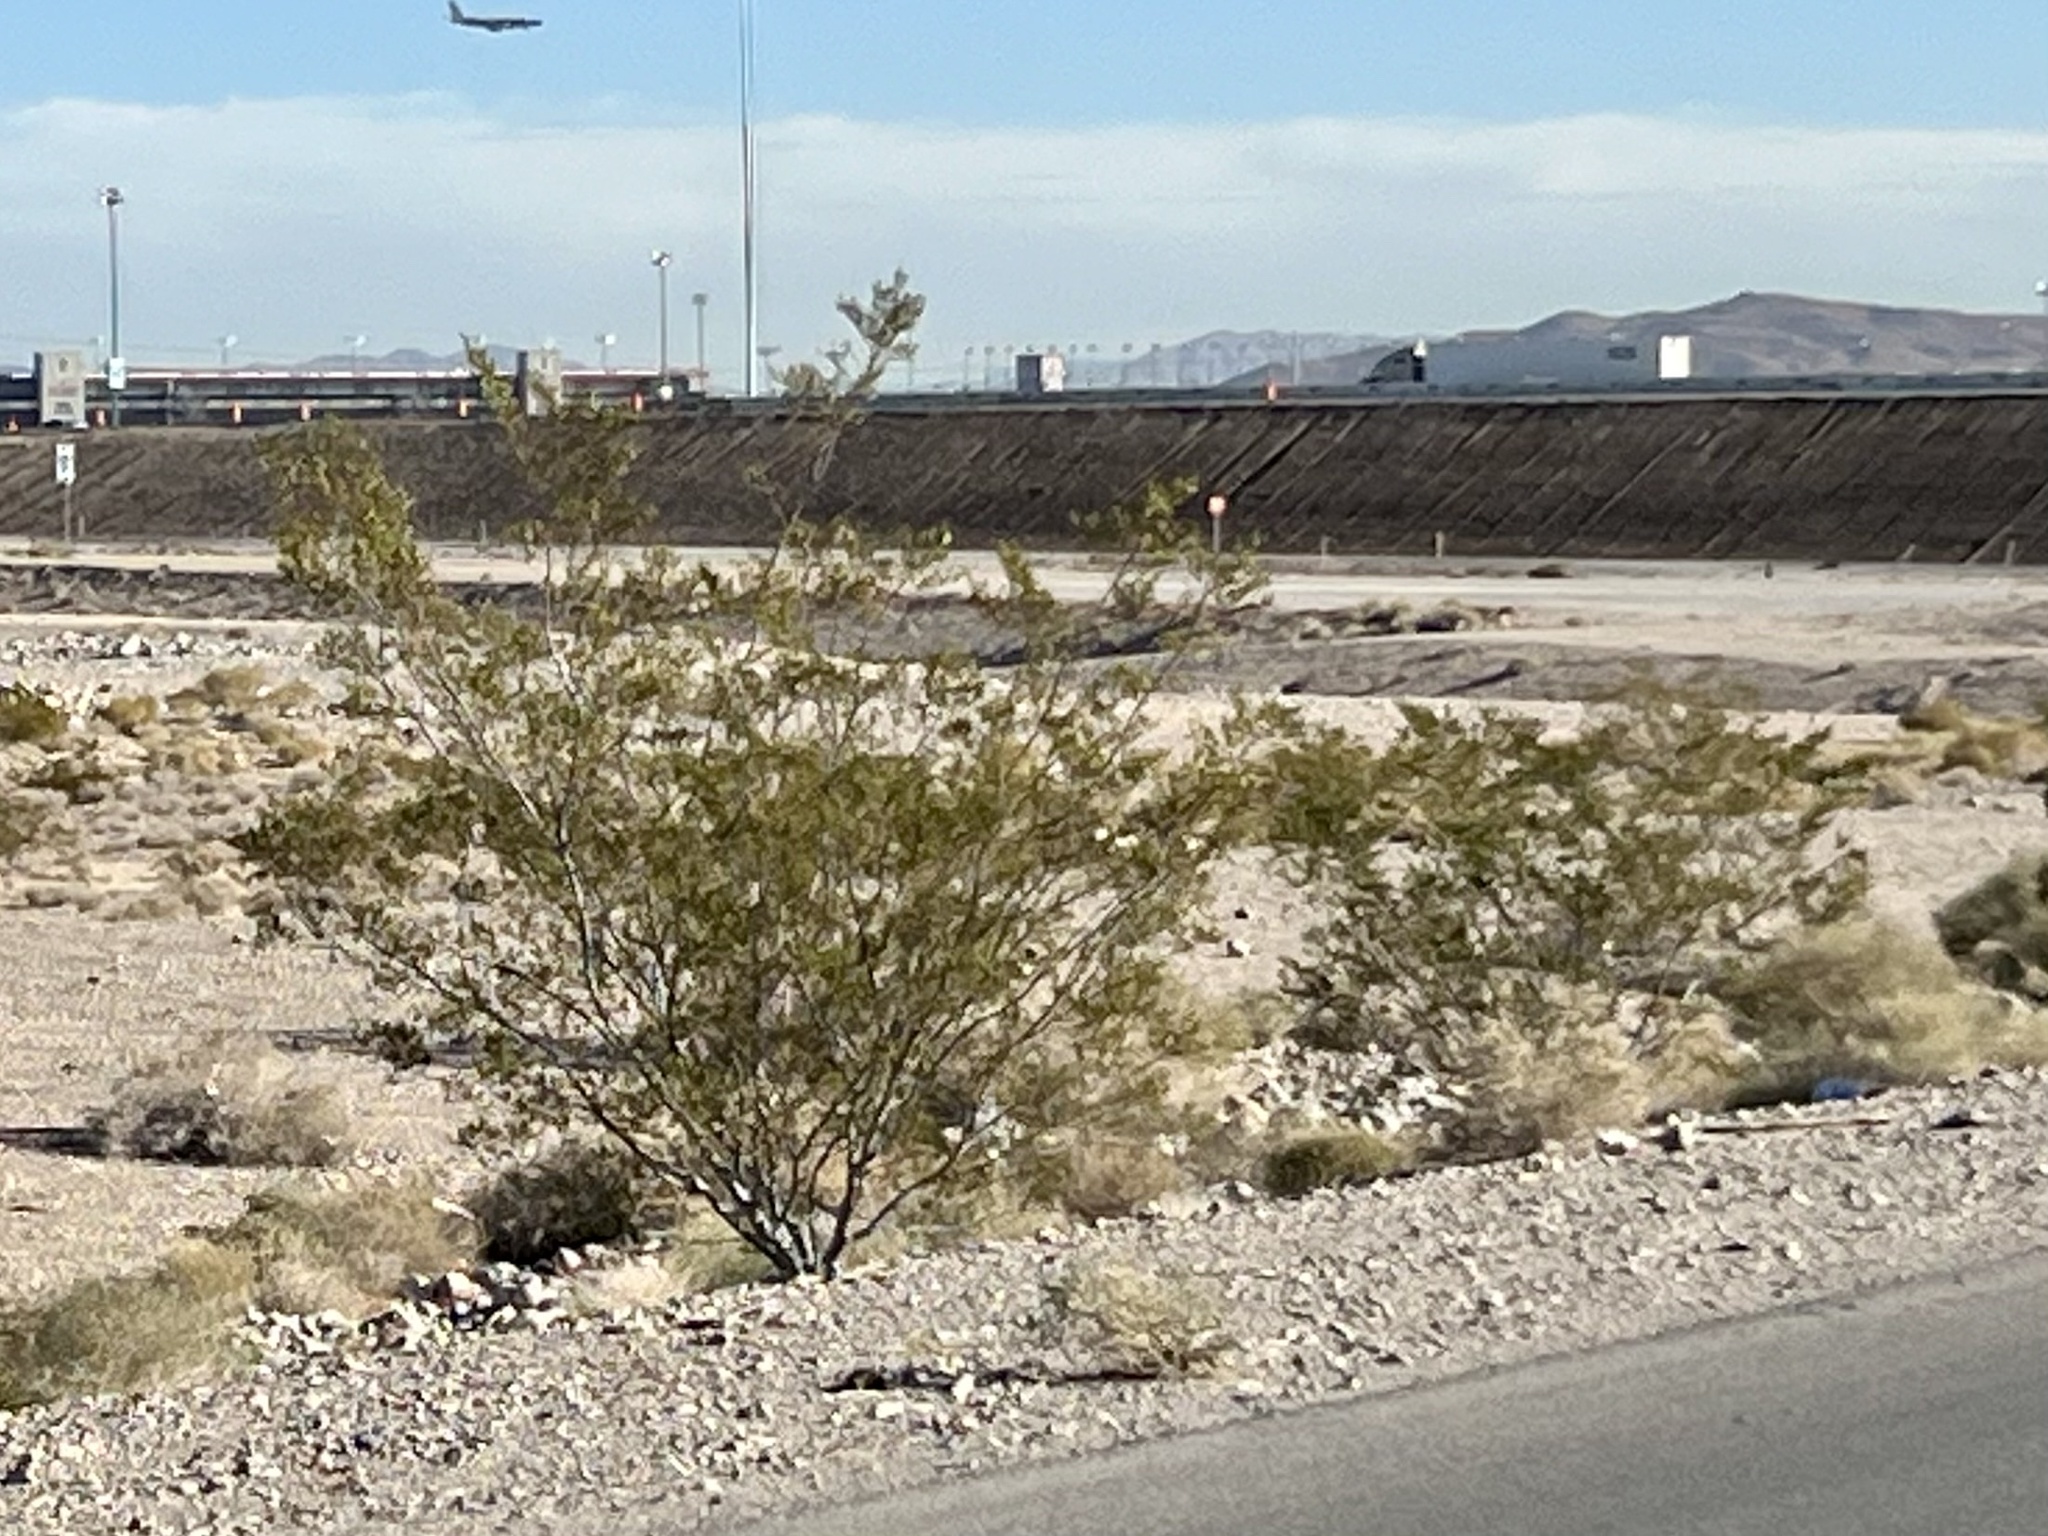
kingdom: Plantae
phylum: Tracheophyta
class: Magnoliopsida
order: Zygophyllales
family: Zygophyllaceae
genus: Larrea
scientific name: Larrea tridentata
